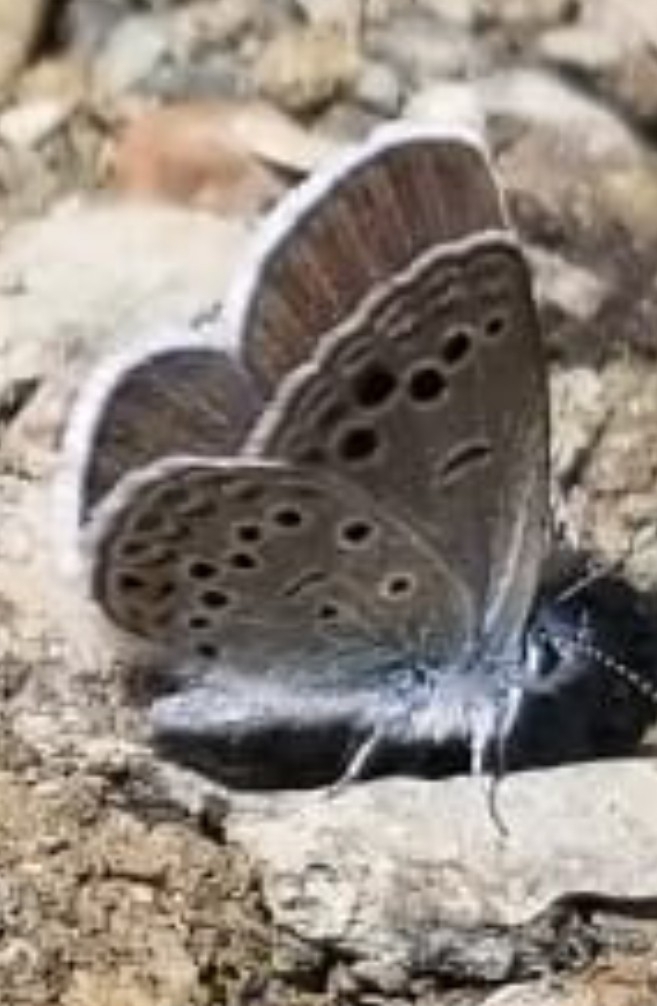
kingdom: Animalia
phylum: Arthropoda
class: Insecta
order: Lepidoptera
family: Lycaenidae
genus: Turanana
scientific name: Turanana panagea
